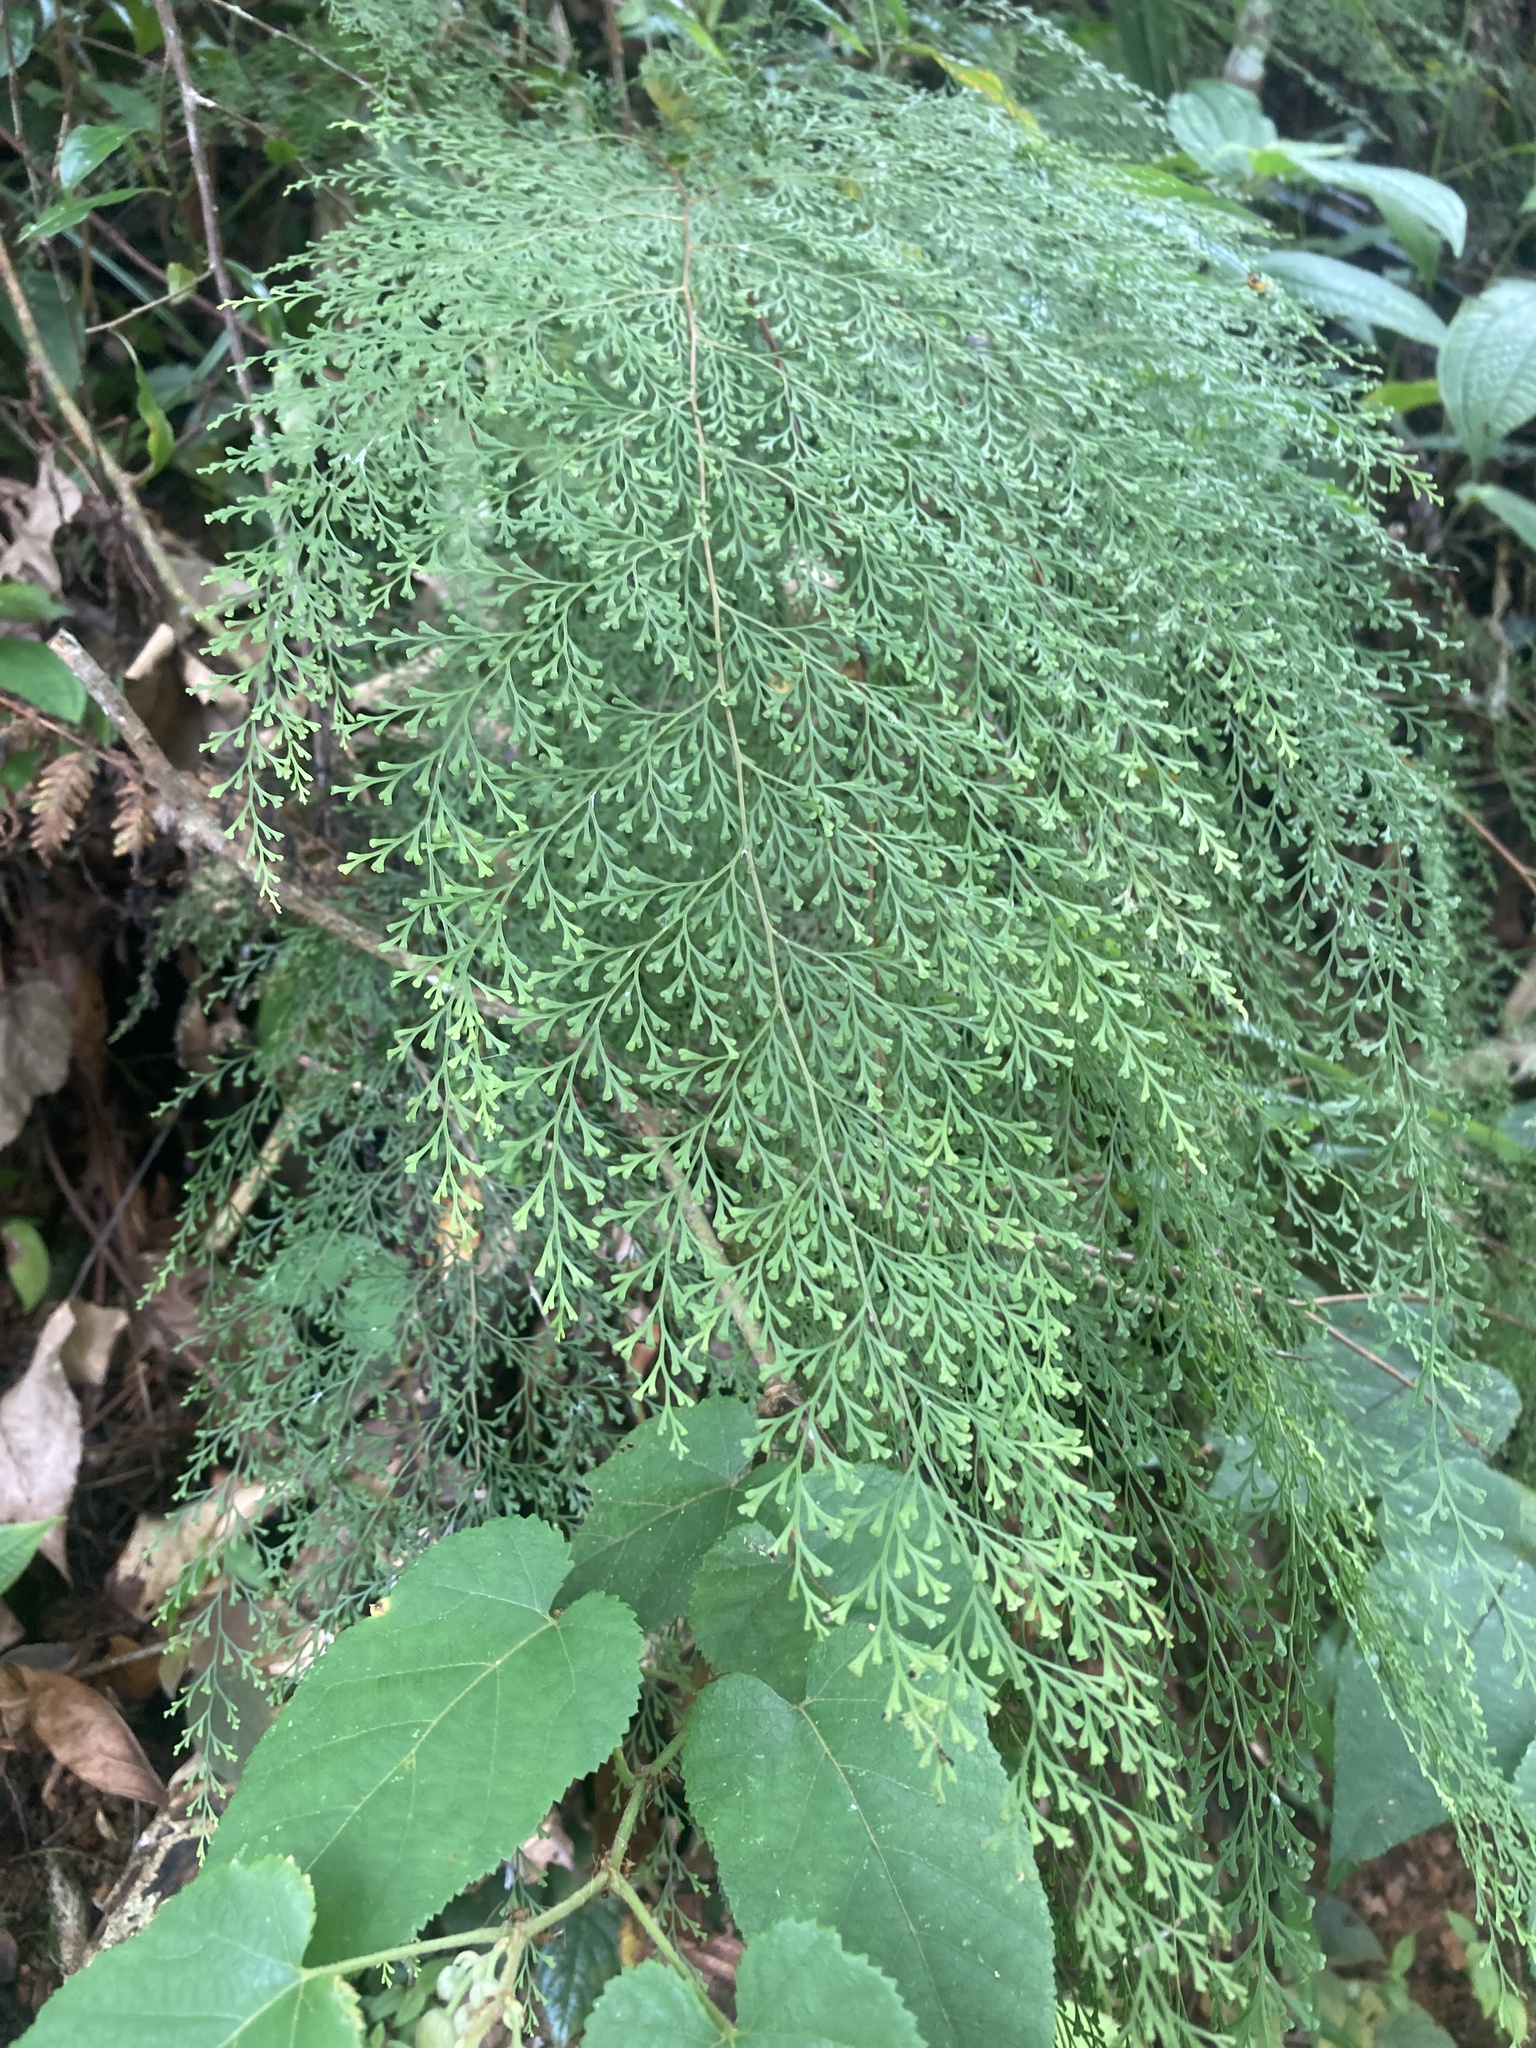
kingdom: Plantae
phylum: Tracheophyta
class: Polypodiopsida
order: Polypodiales
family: Lindsaeaceae
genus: Odontosoria
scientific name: Odontosoria chinensis
